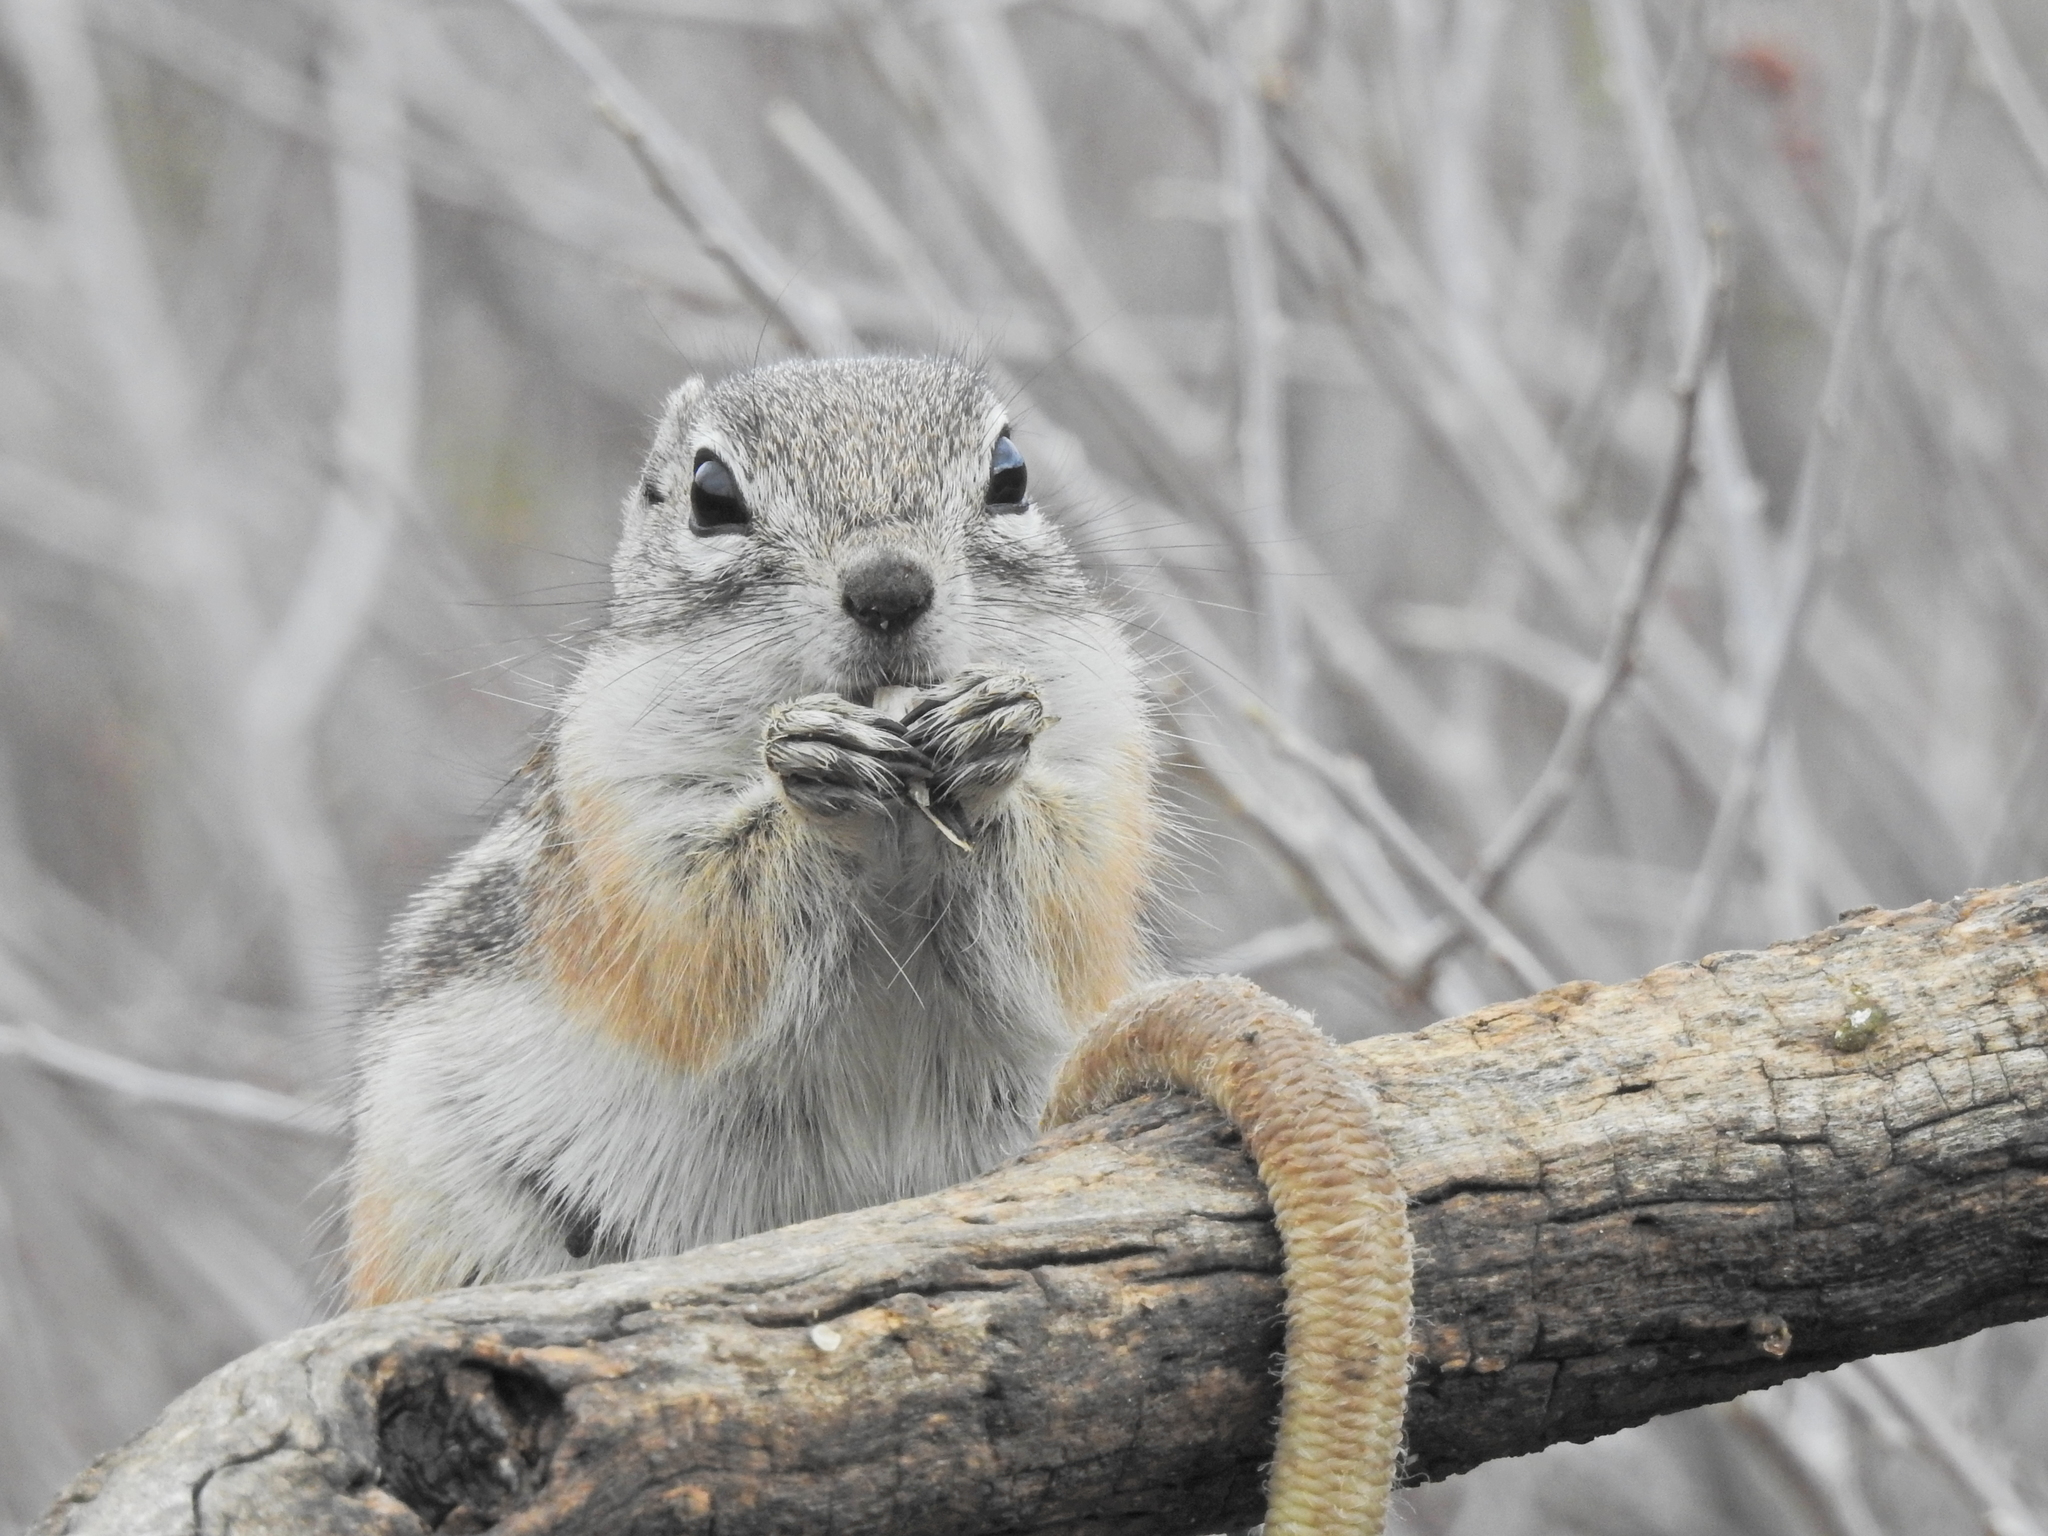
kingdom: Animalia
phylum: Chordata
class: Mammalia
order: Rodentia
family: Sciuridae
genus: Ammospermophilus
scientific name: Ammospermophilus interpres
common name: Texas antelope squirrel
